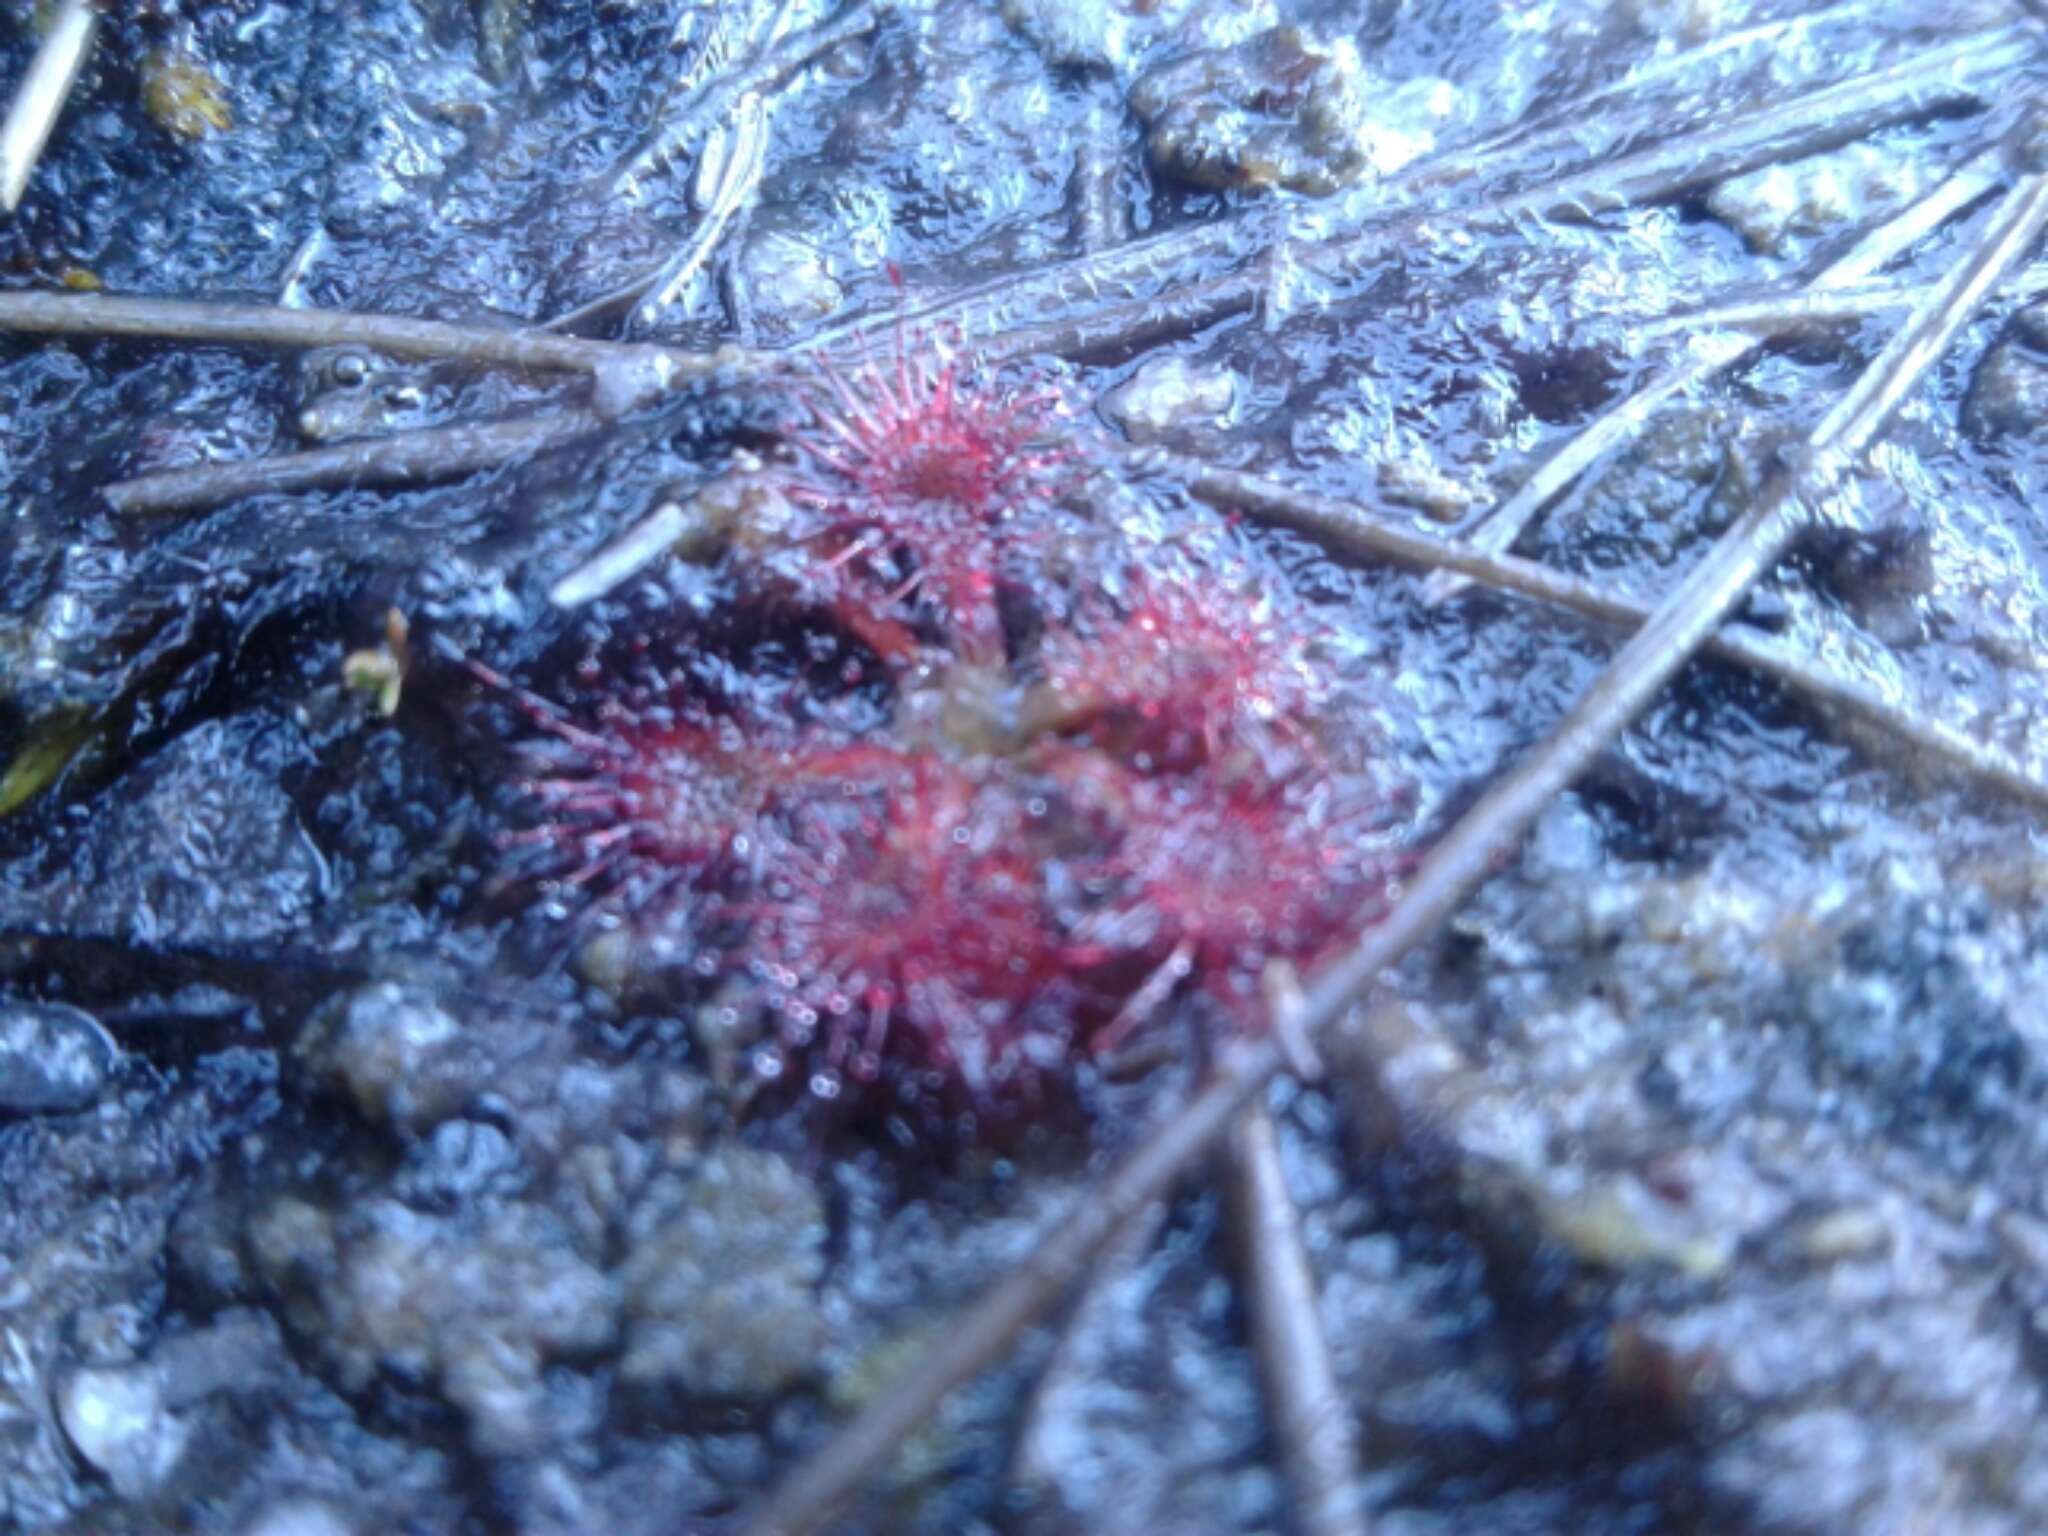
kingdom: Plantae
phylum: Tracheophyta
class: Magnoliopsida
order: Caryophyllales
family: Droseraceae
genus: Drosera
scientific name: Drosera spatulata
